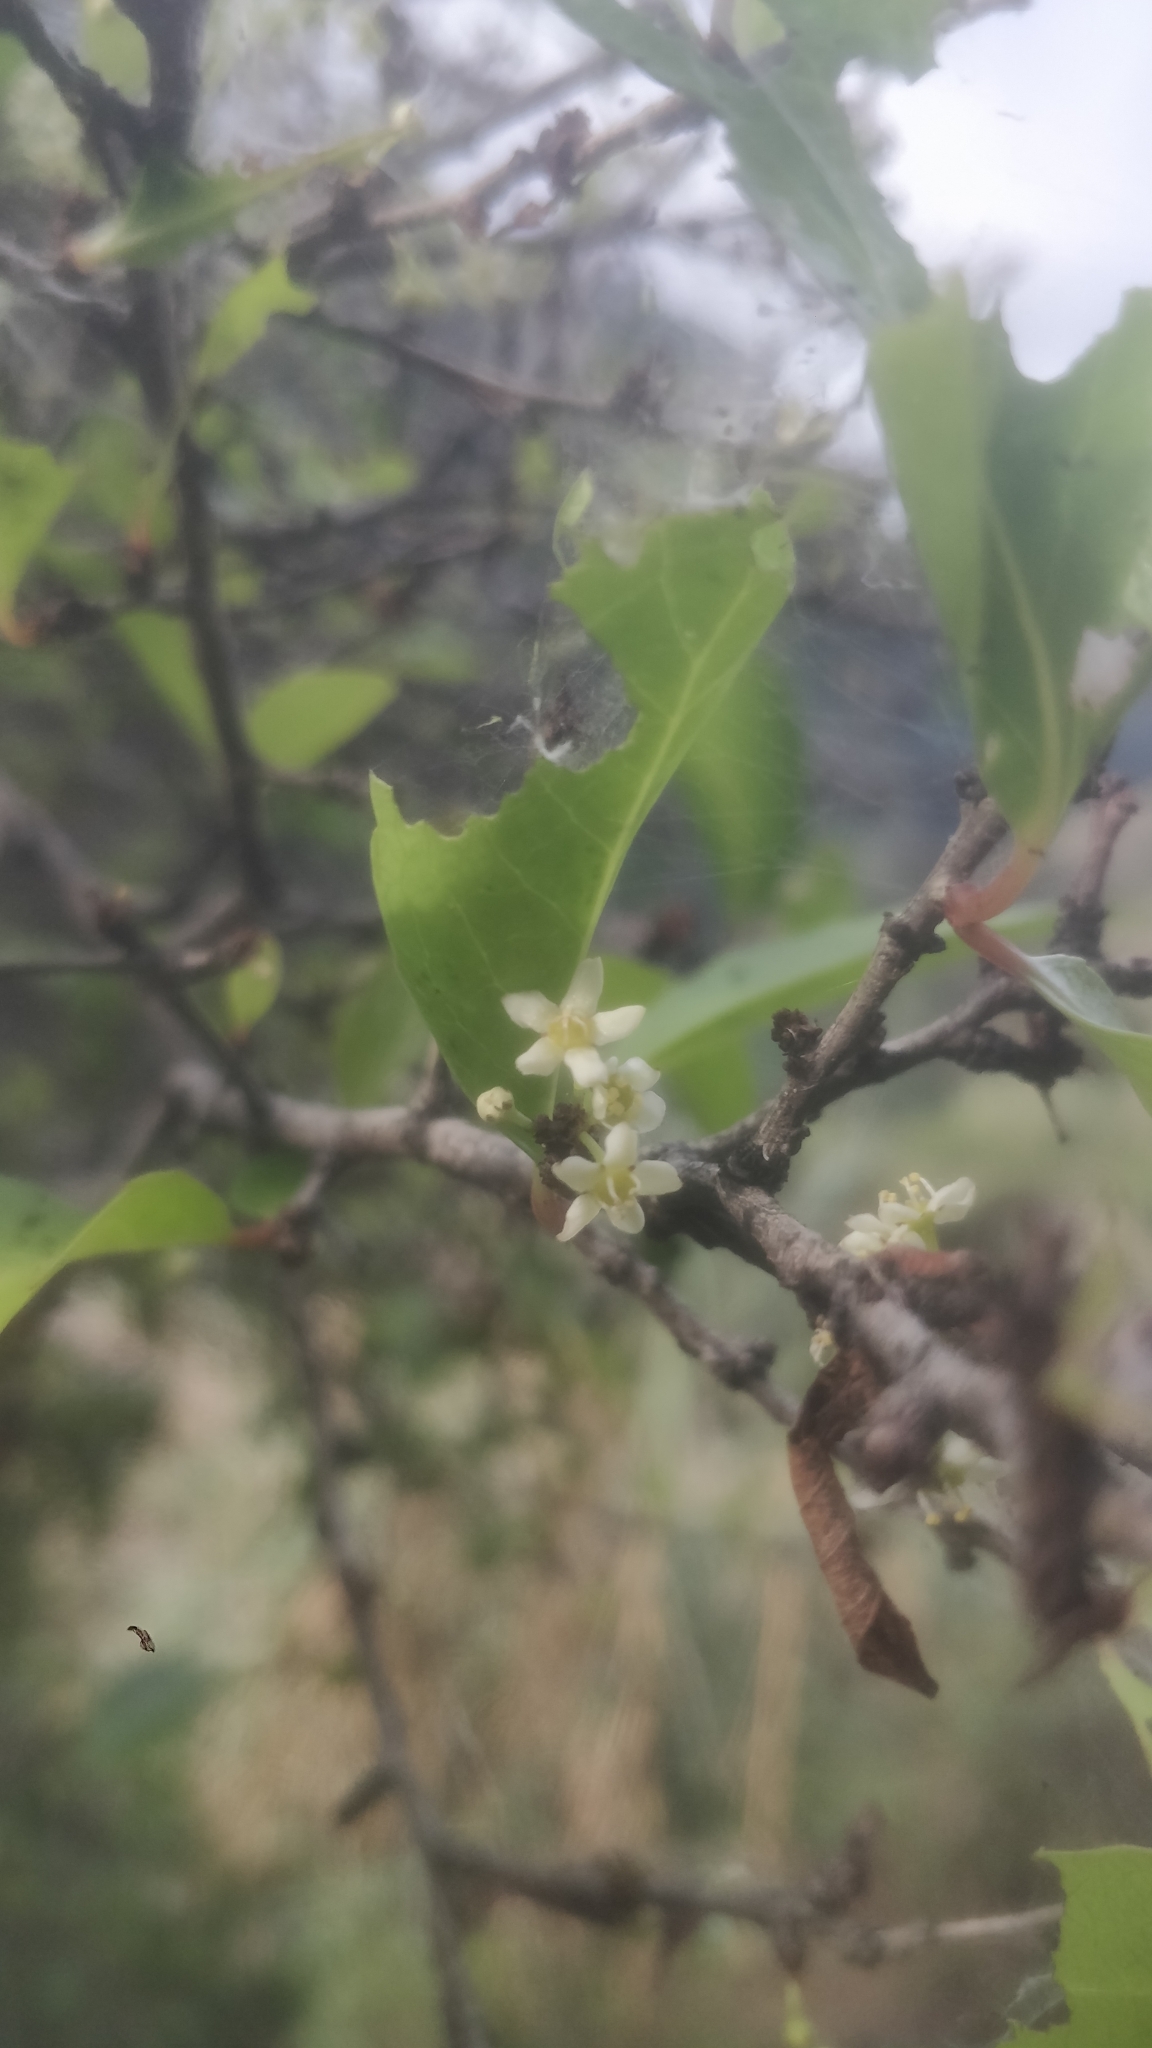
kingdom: Plantae
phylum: Tracheophyta
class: Magnoliopsida
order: Celastrales
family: Celastraceae
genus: Gymnosporia
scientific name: Gymnosporia dryandri
